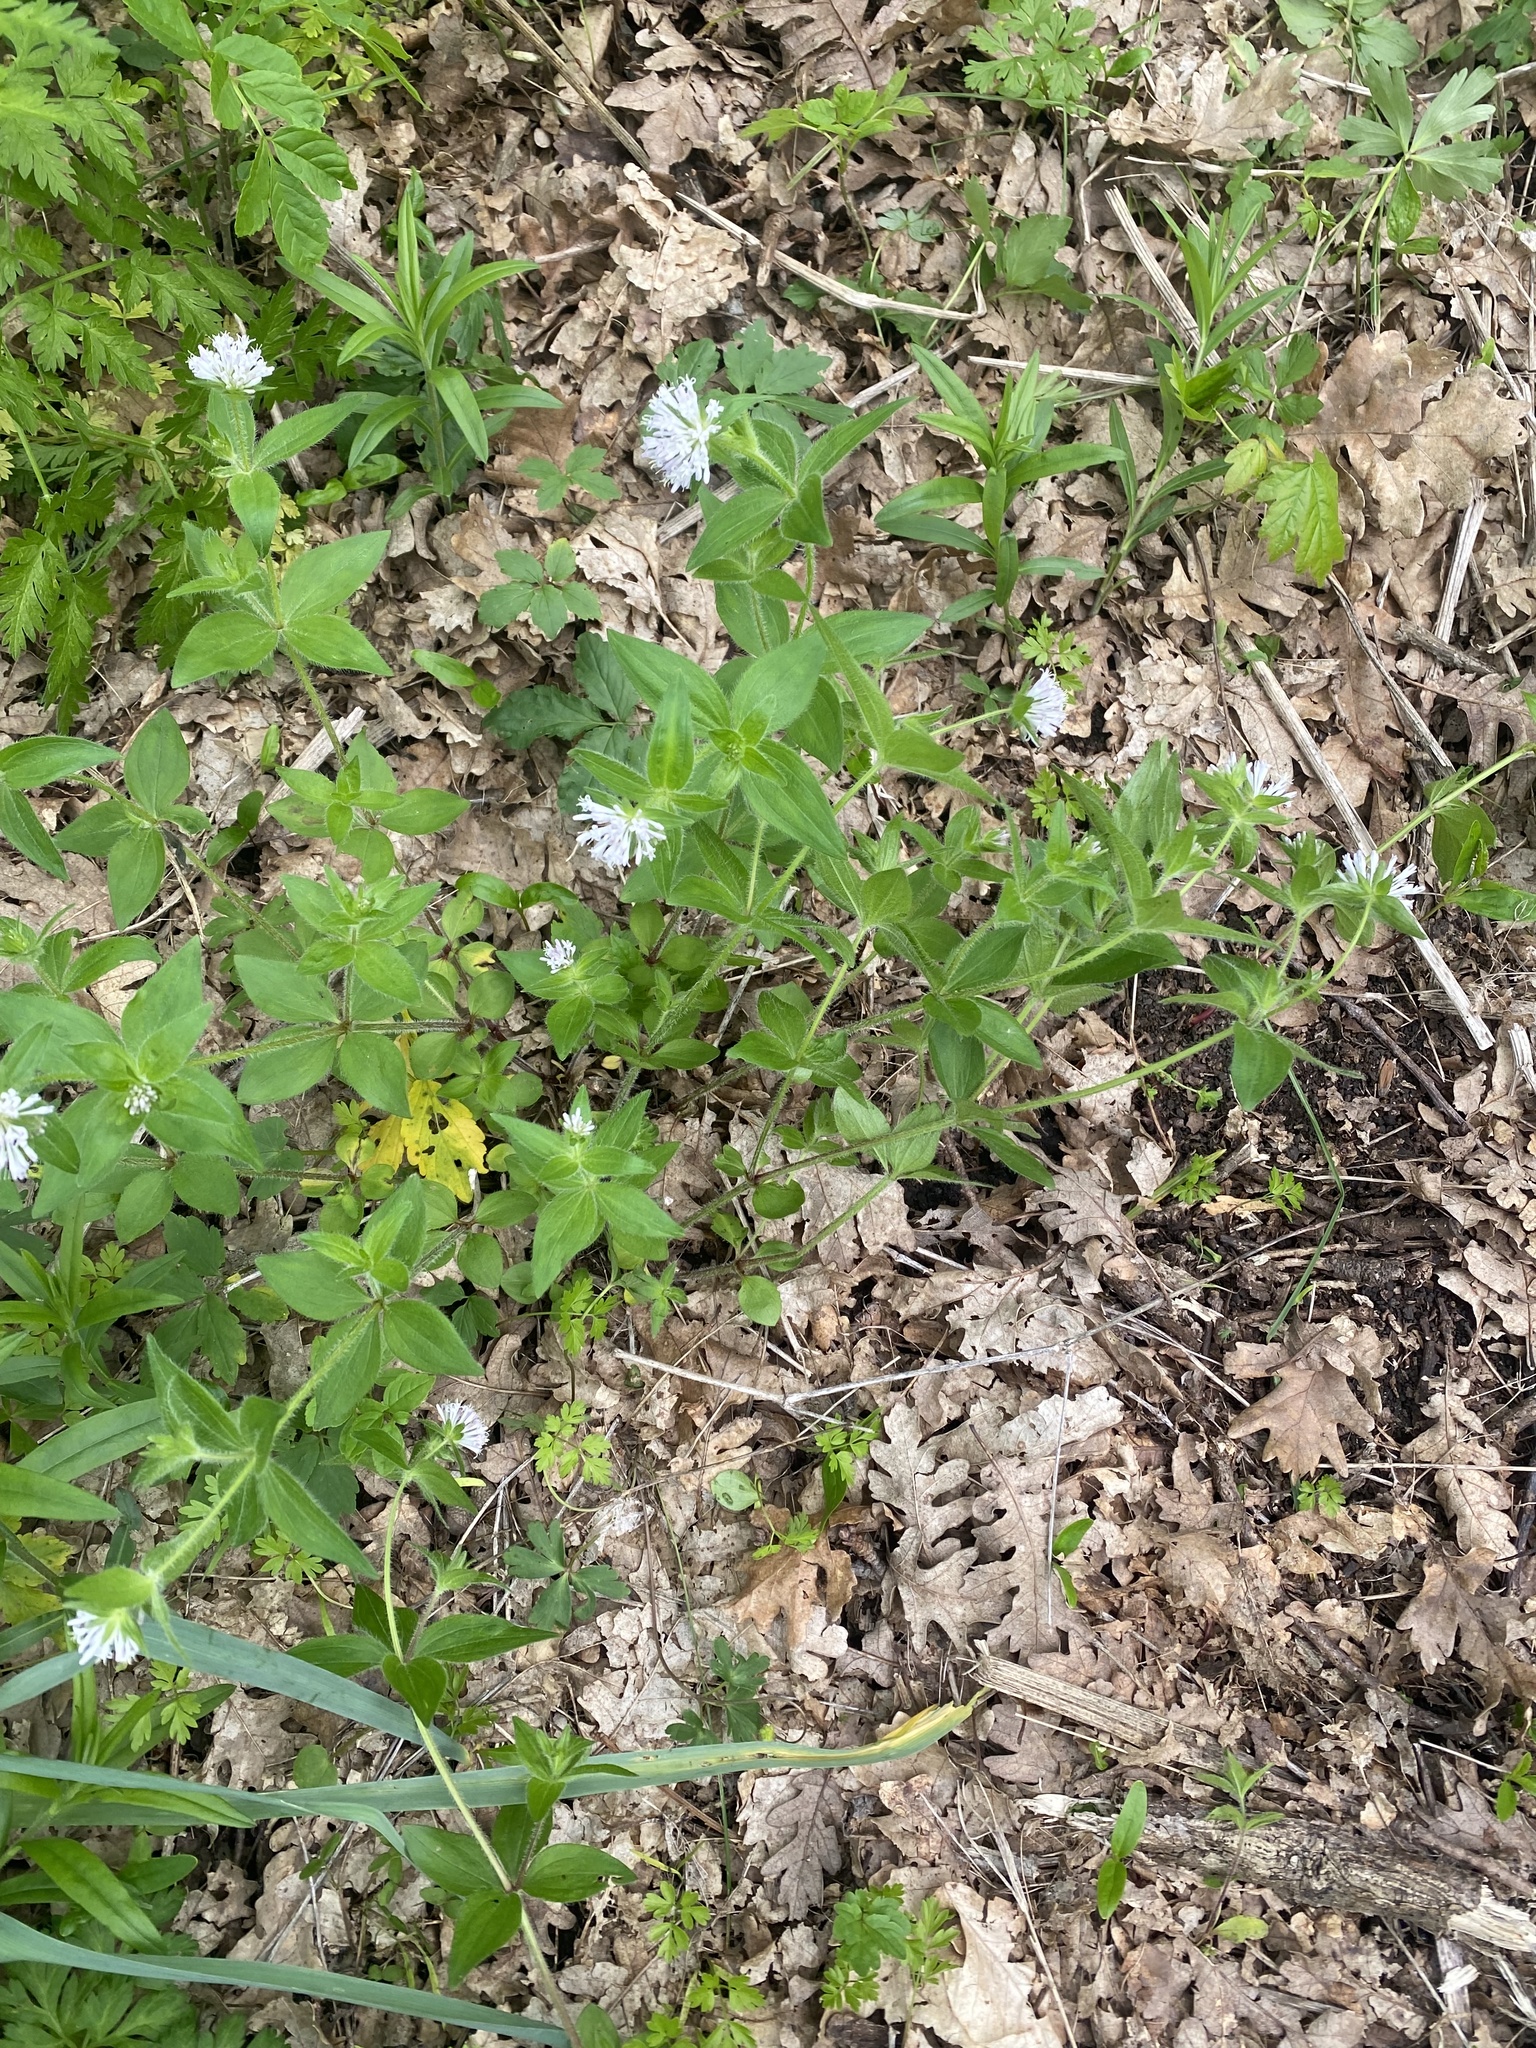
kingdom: Plantae
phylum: Tracheophyta
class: Magnoliopsida
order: Gentianales
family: Rubiaceae
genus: Asperula
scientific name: Asperula taurina
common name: Pink woodruff
